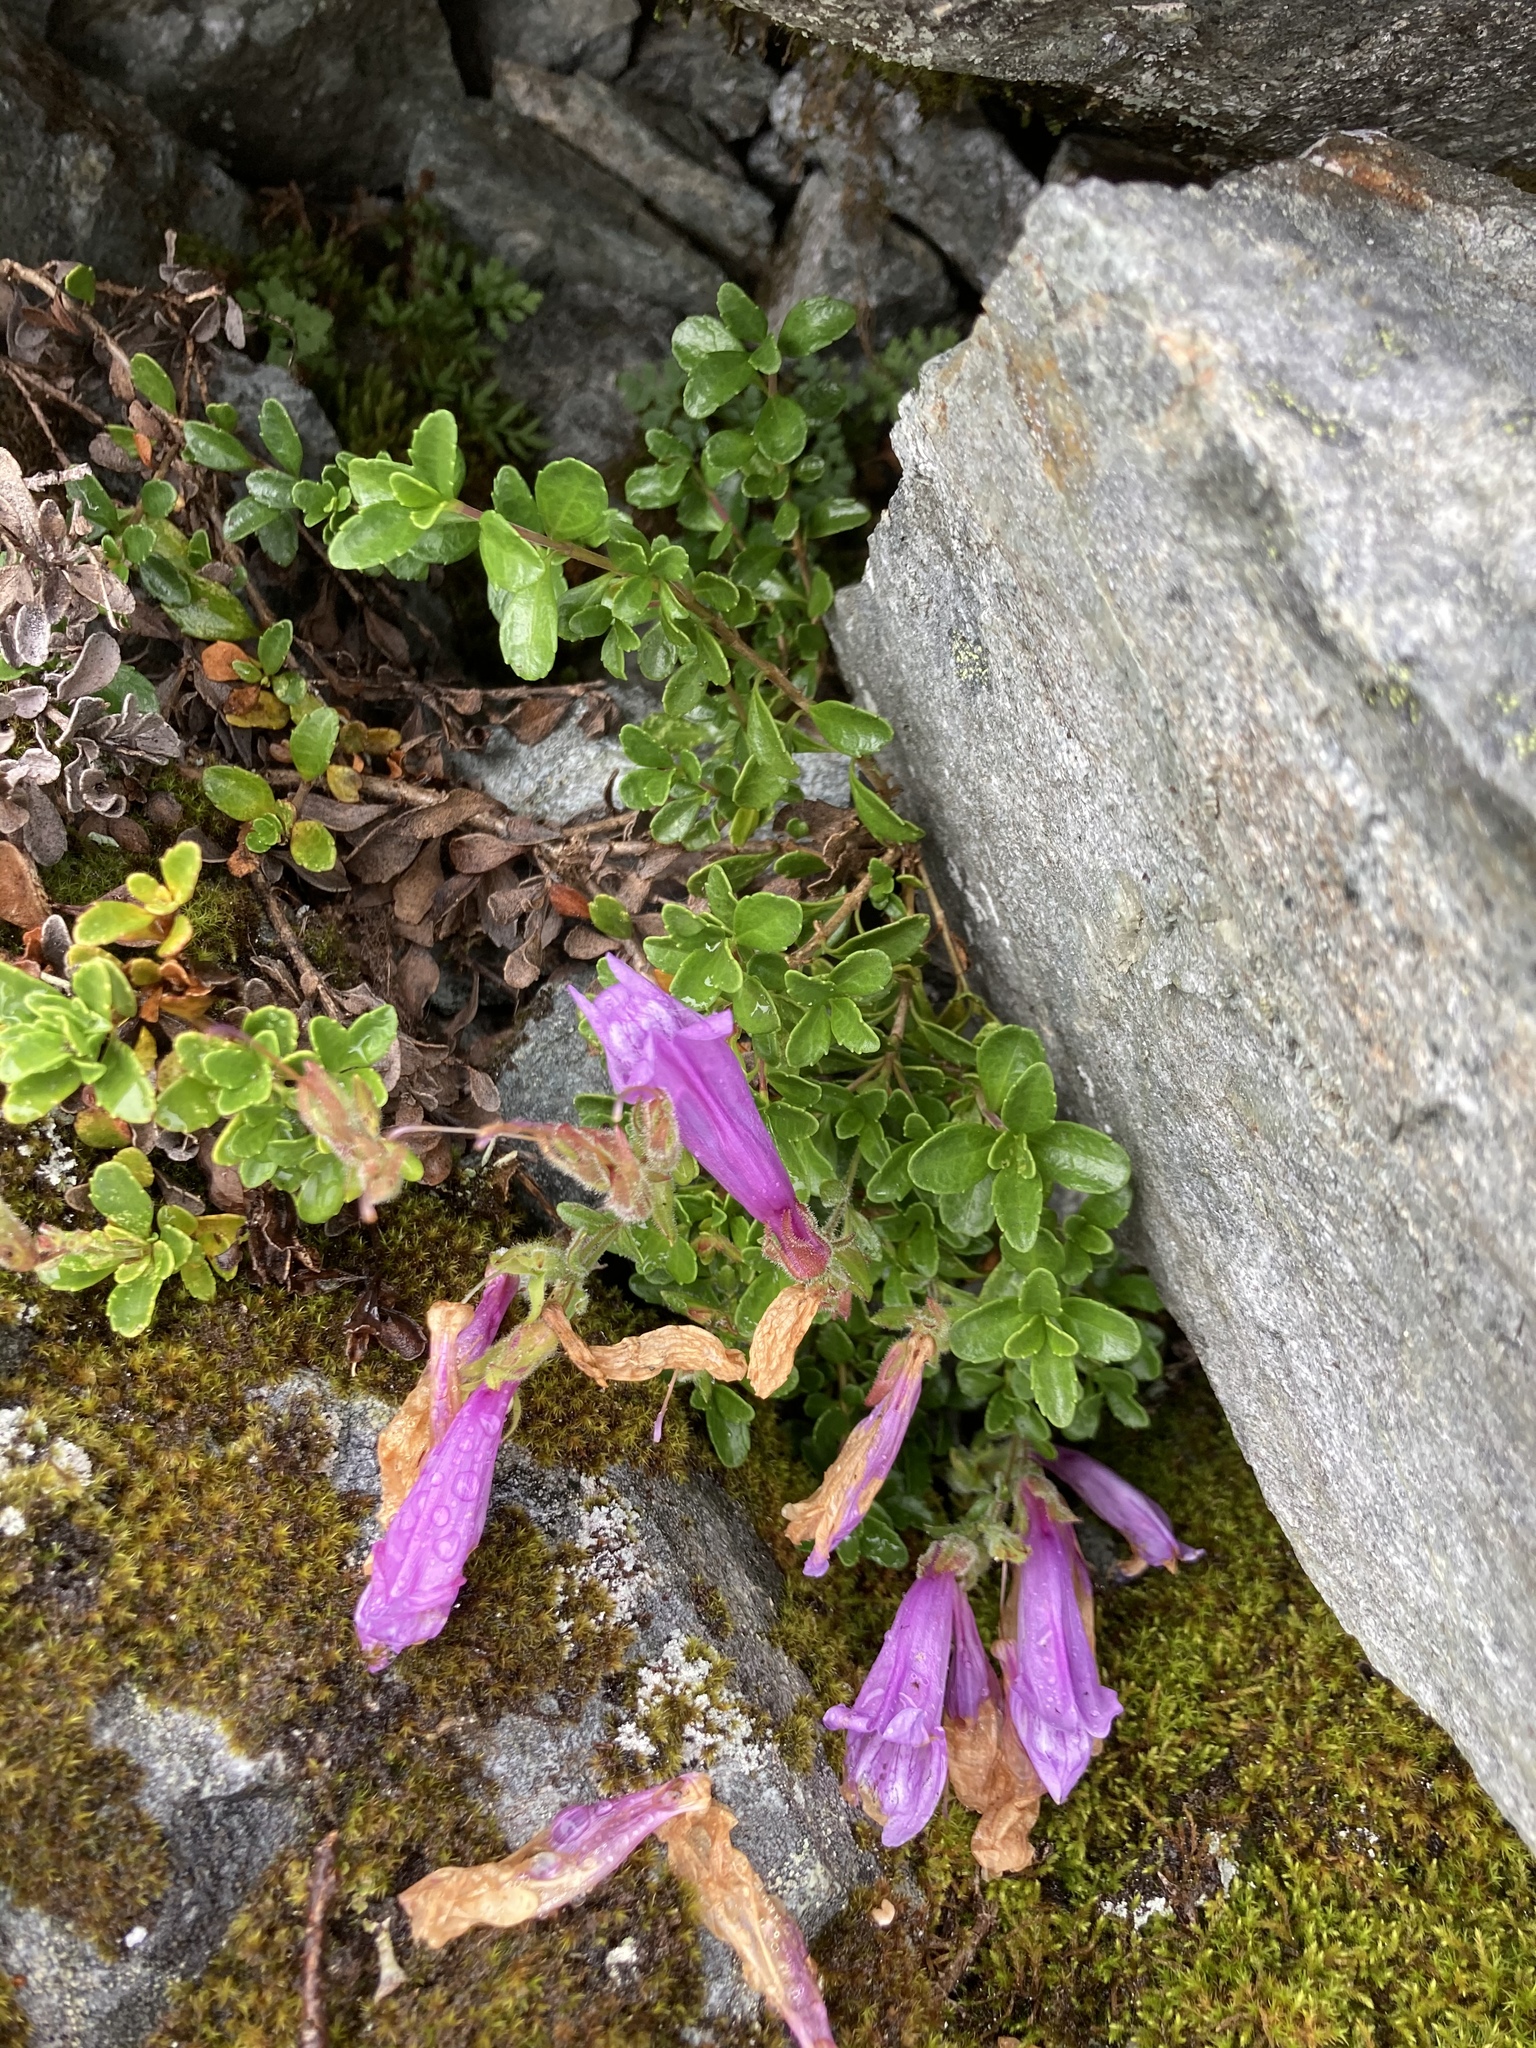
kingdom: Plantae
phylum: Tracheophyta
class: Magnoliopsida
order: Lamiales
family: Plantaginaceae
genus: Penstemon
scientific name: Penstemon davidsonii
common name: Davidson's penstemon
